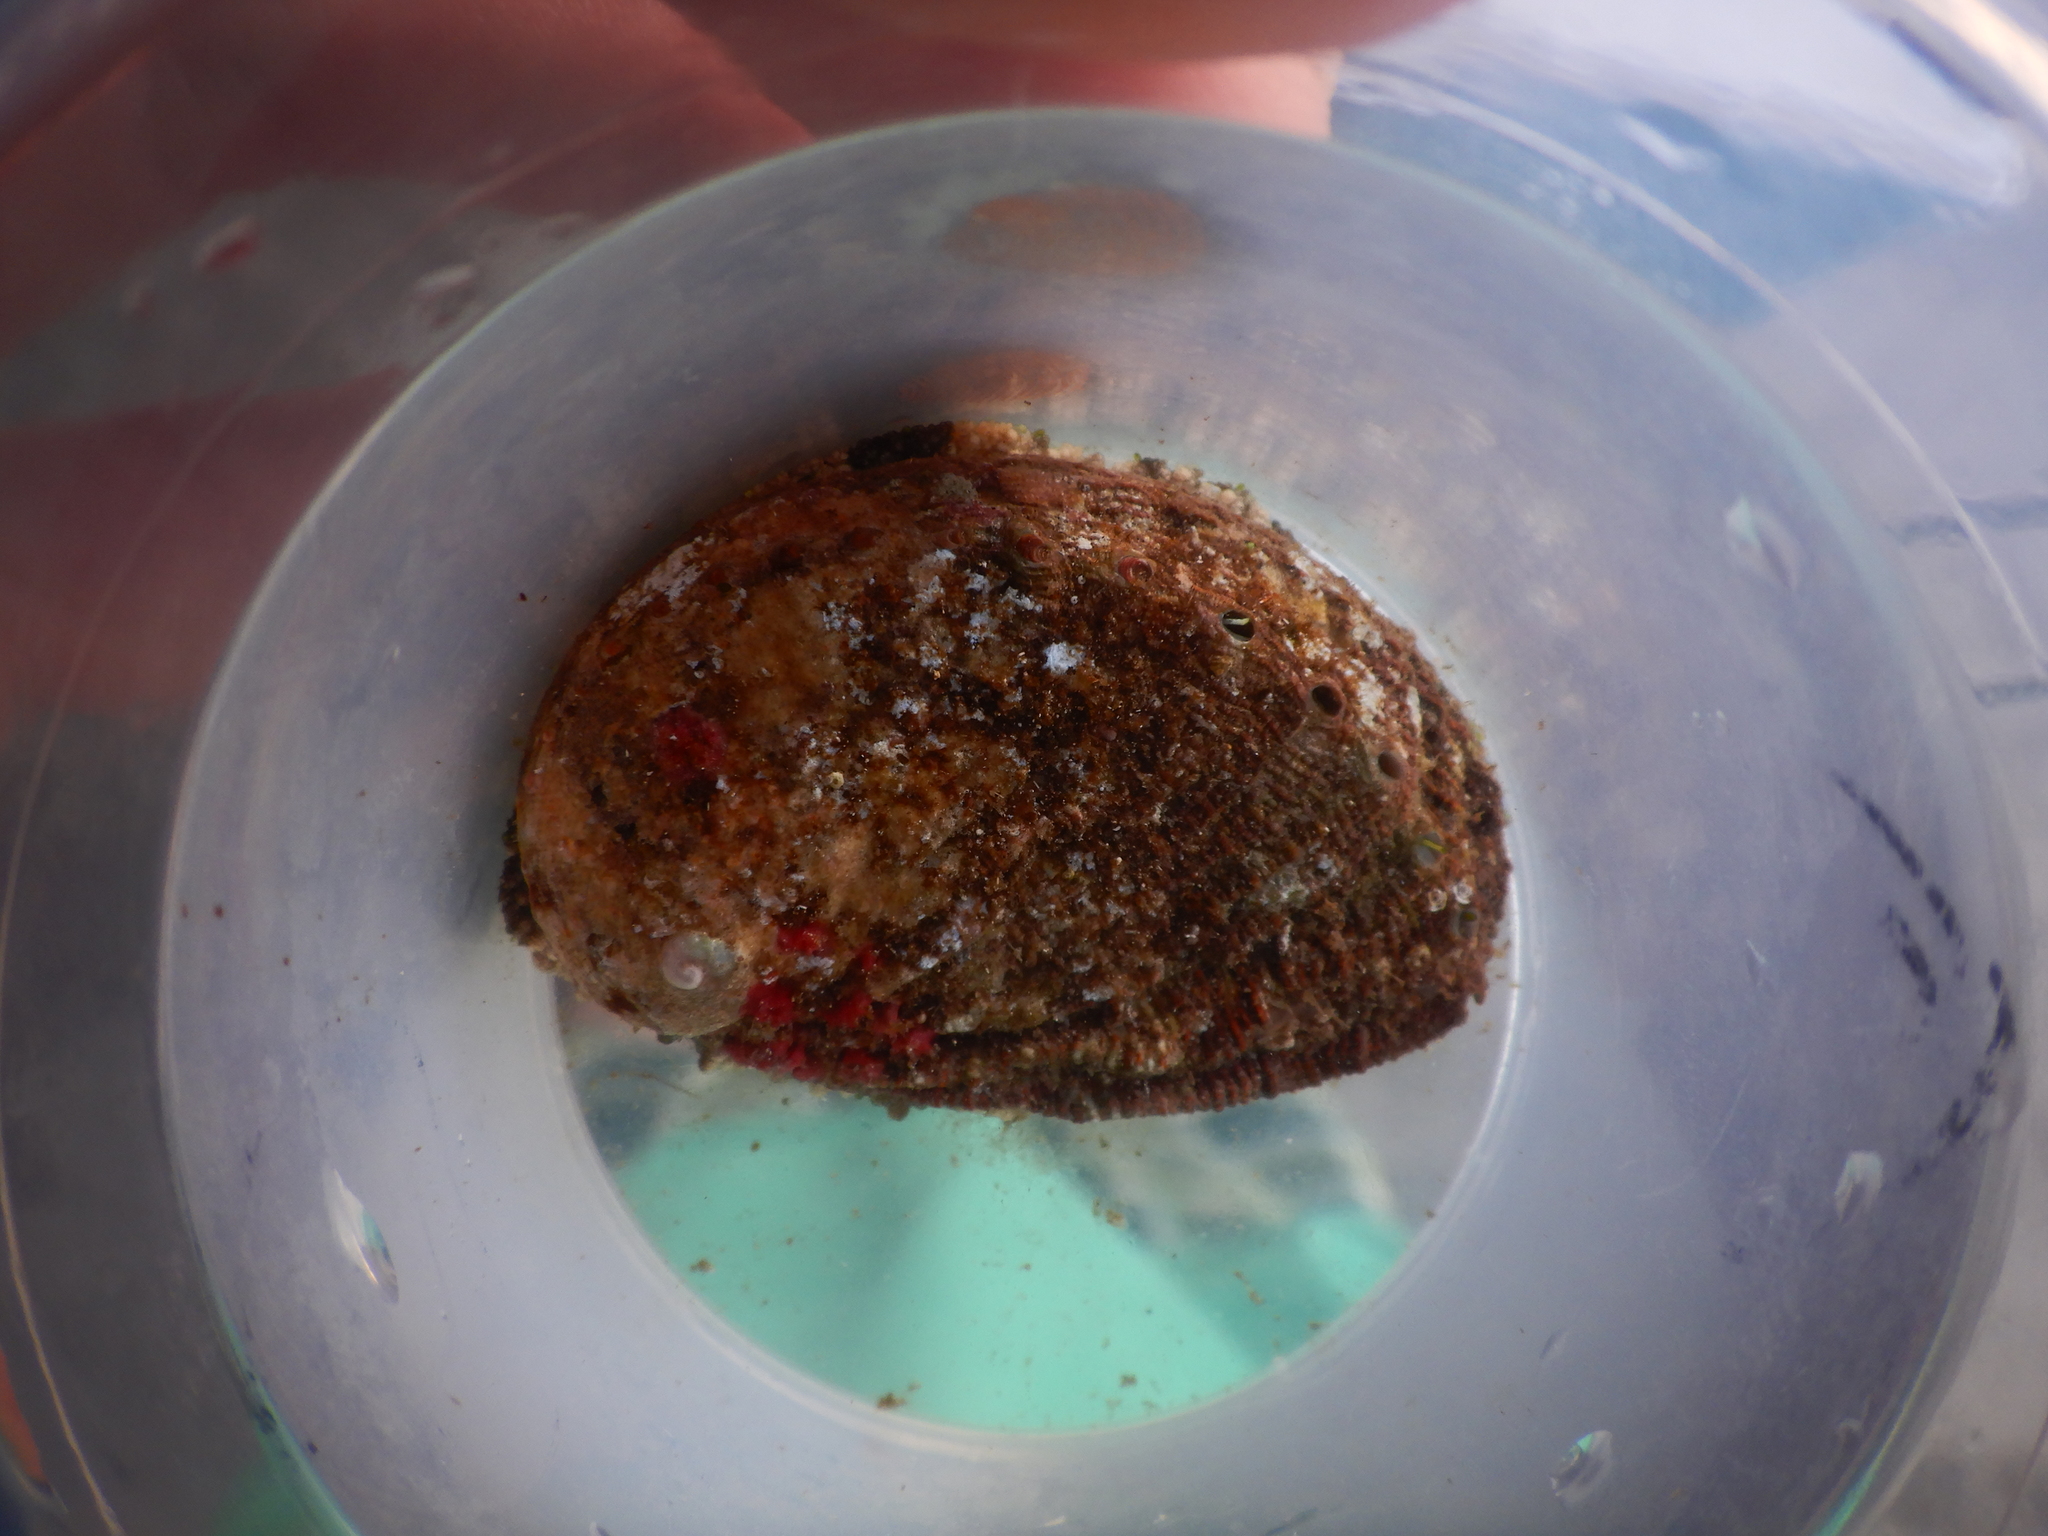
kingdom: Animalia
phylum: Mollusca
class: Gastropoda
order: Lepetellida
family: Haliotidae
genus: Haliotis
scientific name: Haliotis tuberculata
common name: Green ormer
